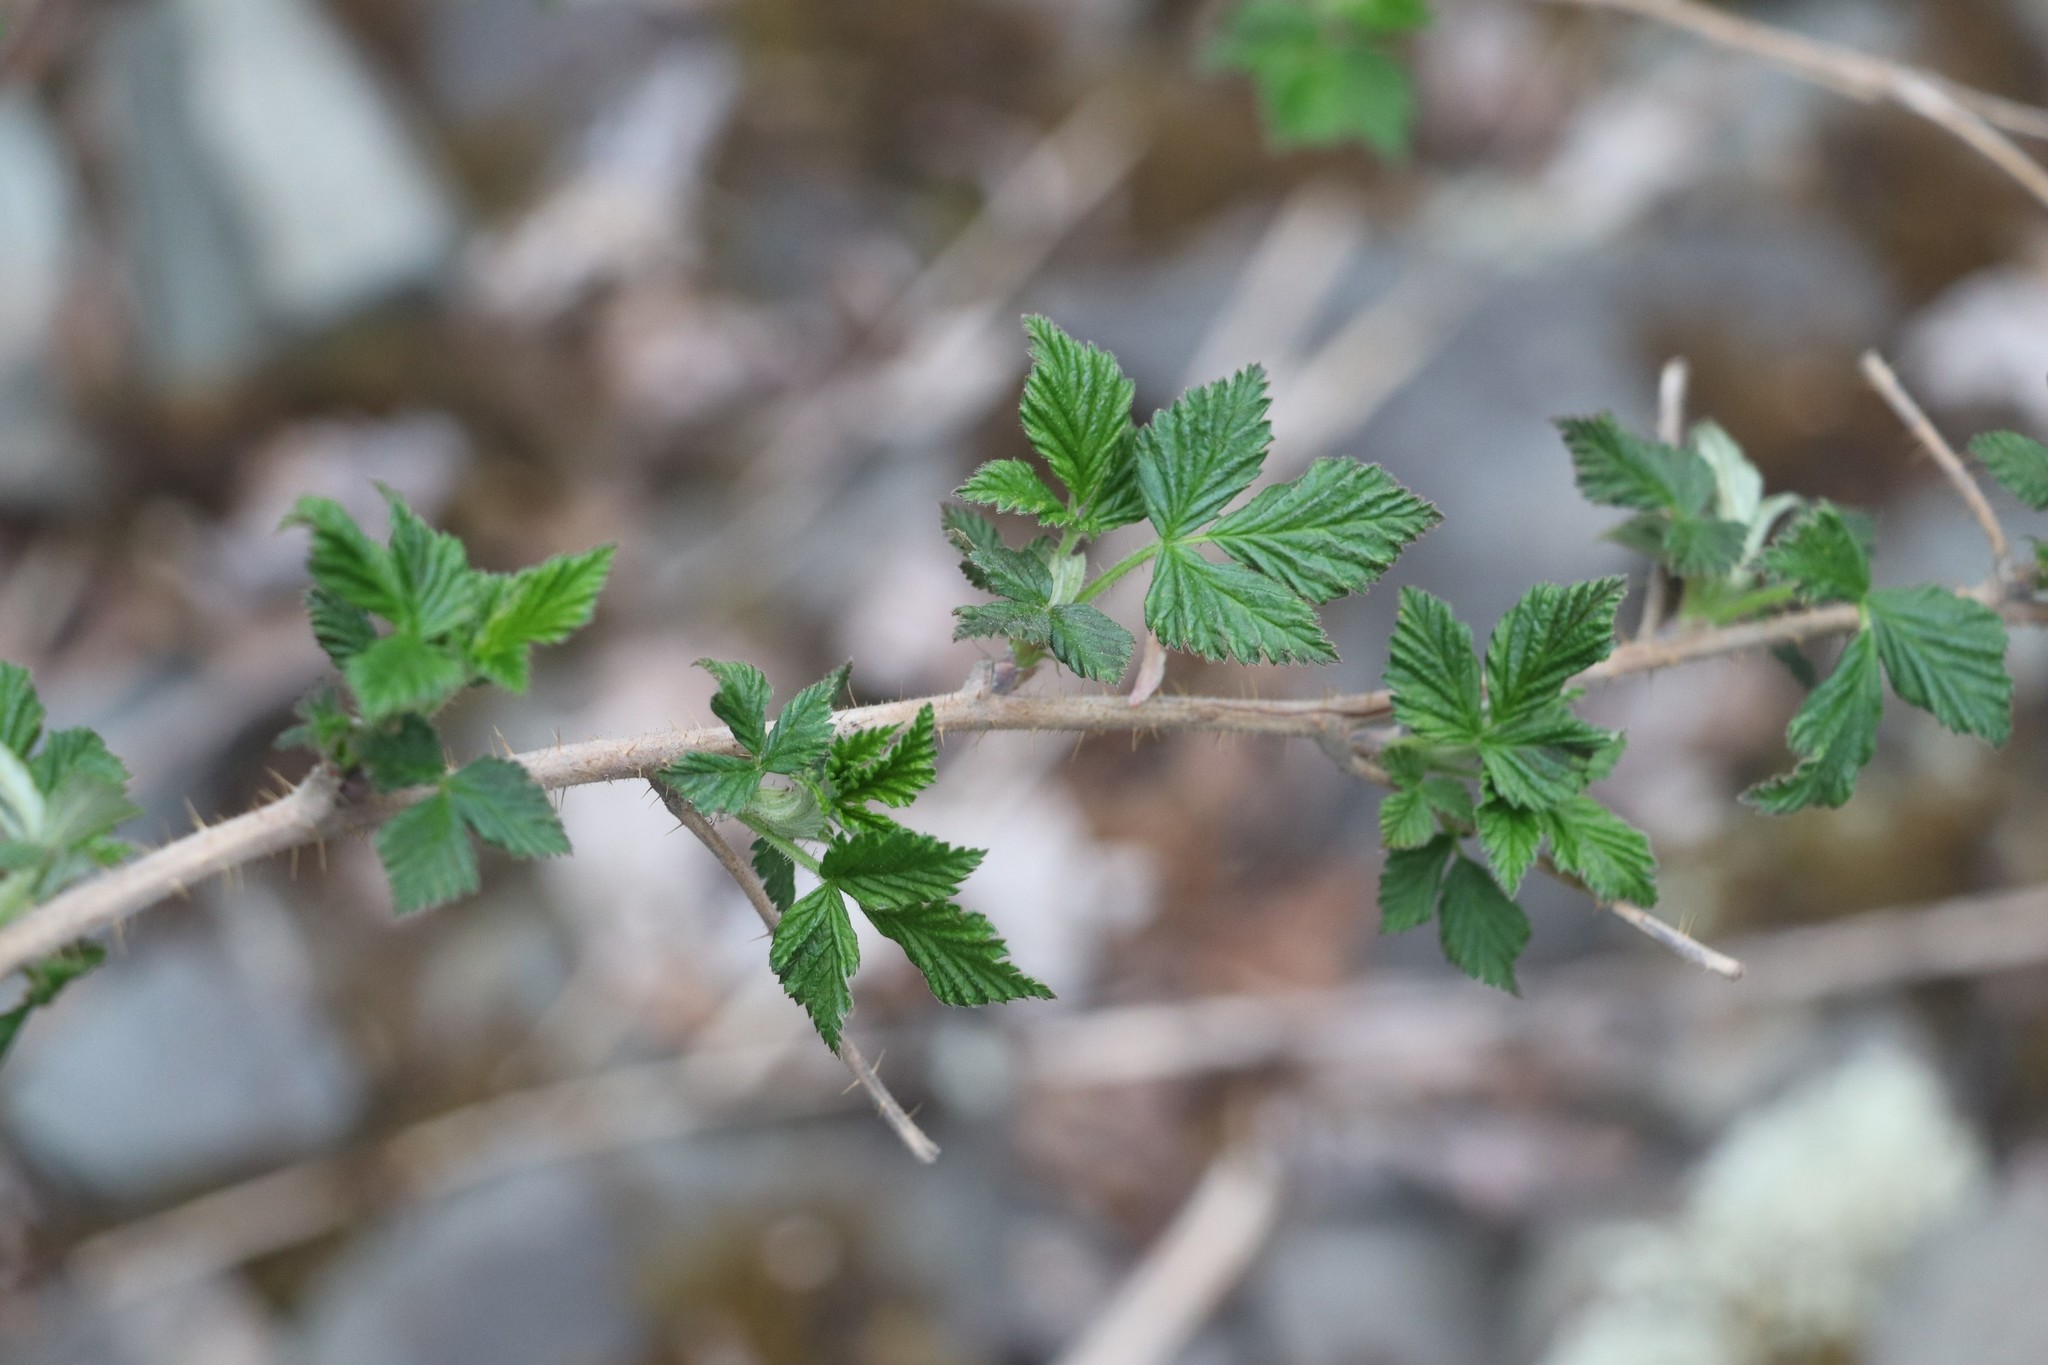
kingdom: Plantae
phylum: Tracheophyta
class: Magnoliopsida
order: Rosales
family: Rosaceae
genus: Rubus
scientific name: Rubus idaeus
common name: Raspberry
